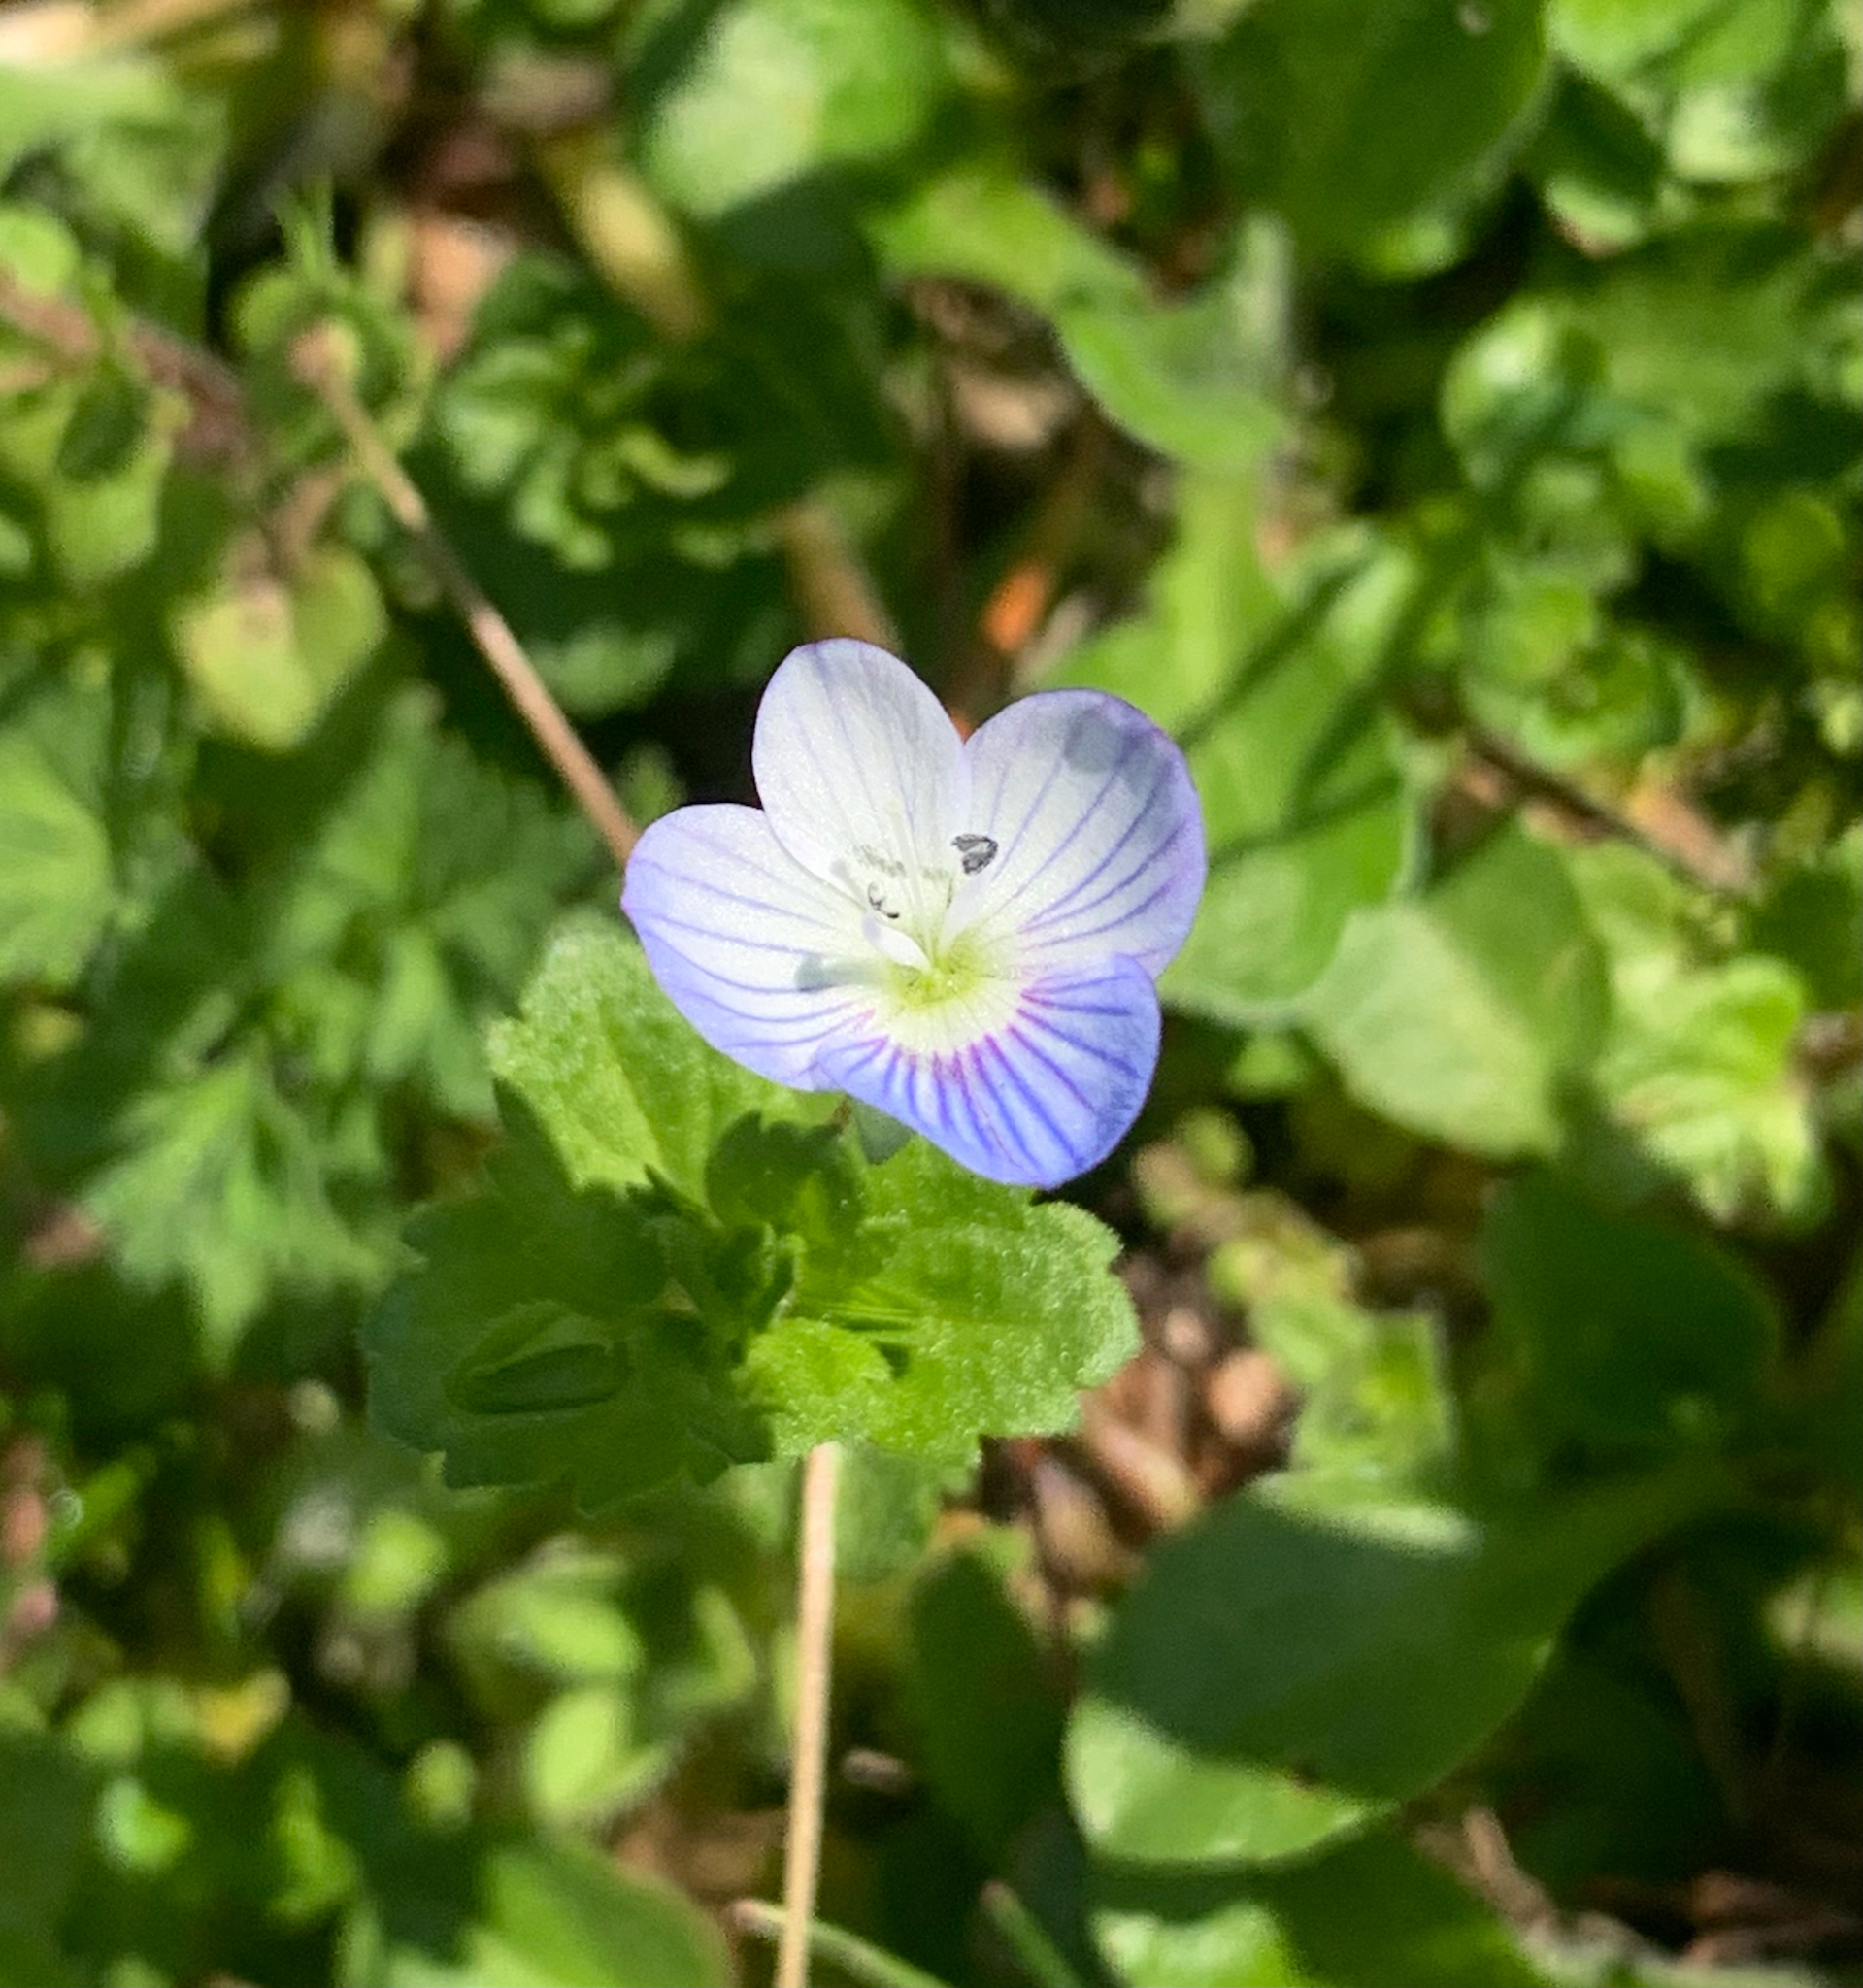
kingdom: Plantae
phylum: Tracheophyta
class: Magnoliopsida
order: Lamiales
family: Plantaginaceae
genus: Veronica
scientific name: Veronica persica
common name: Common field-speedwell
